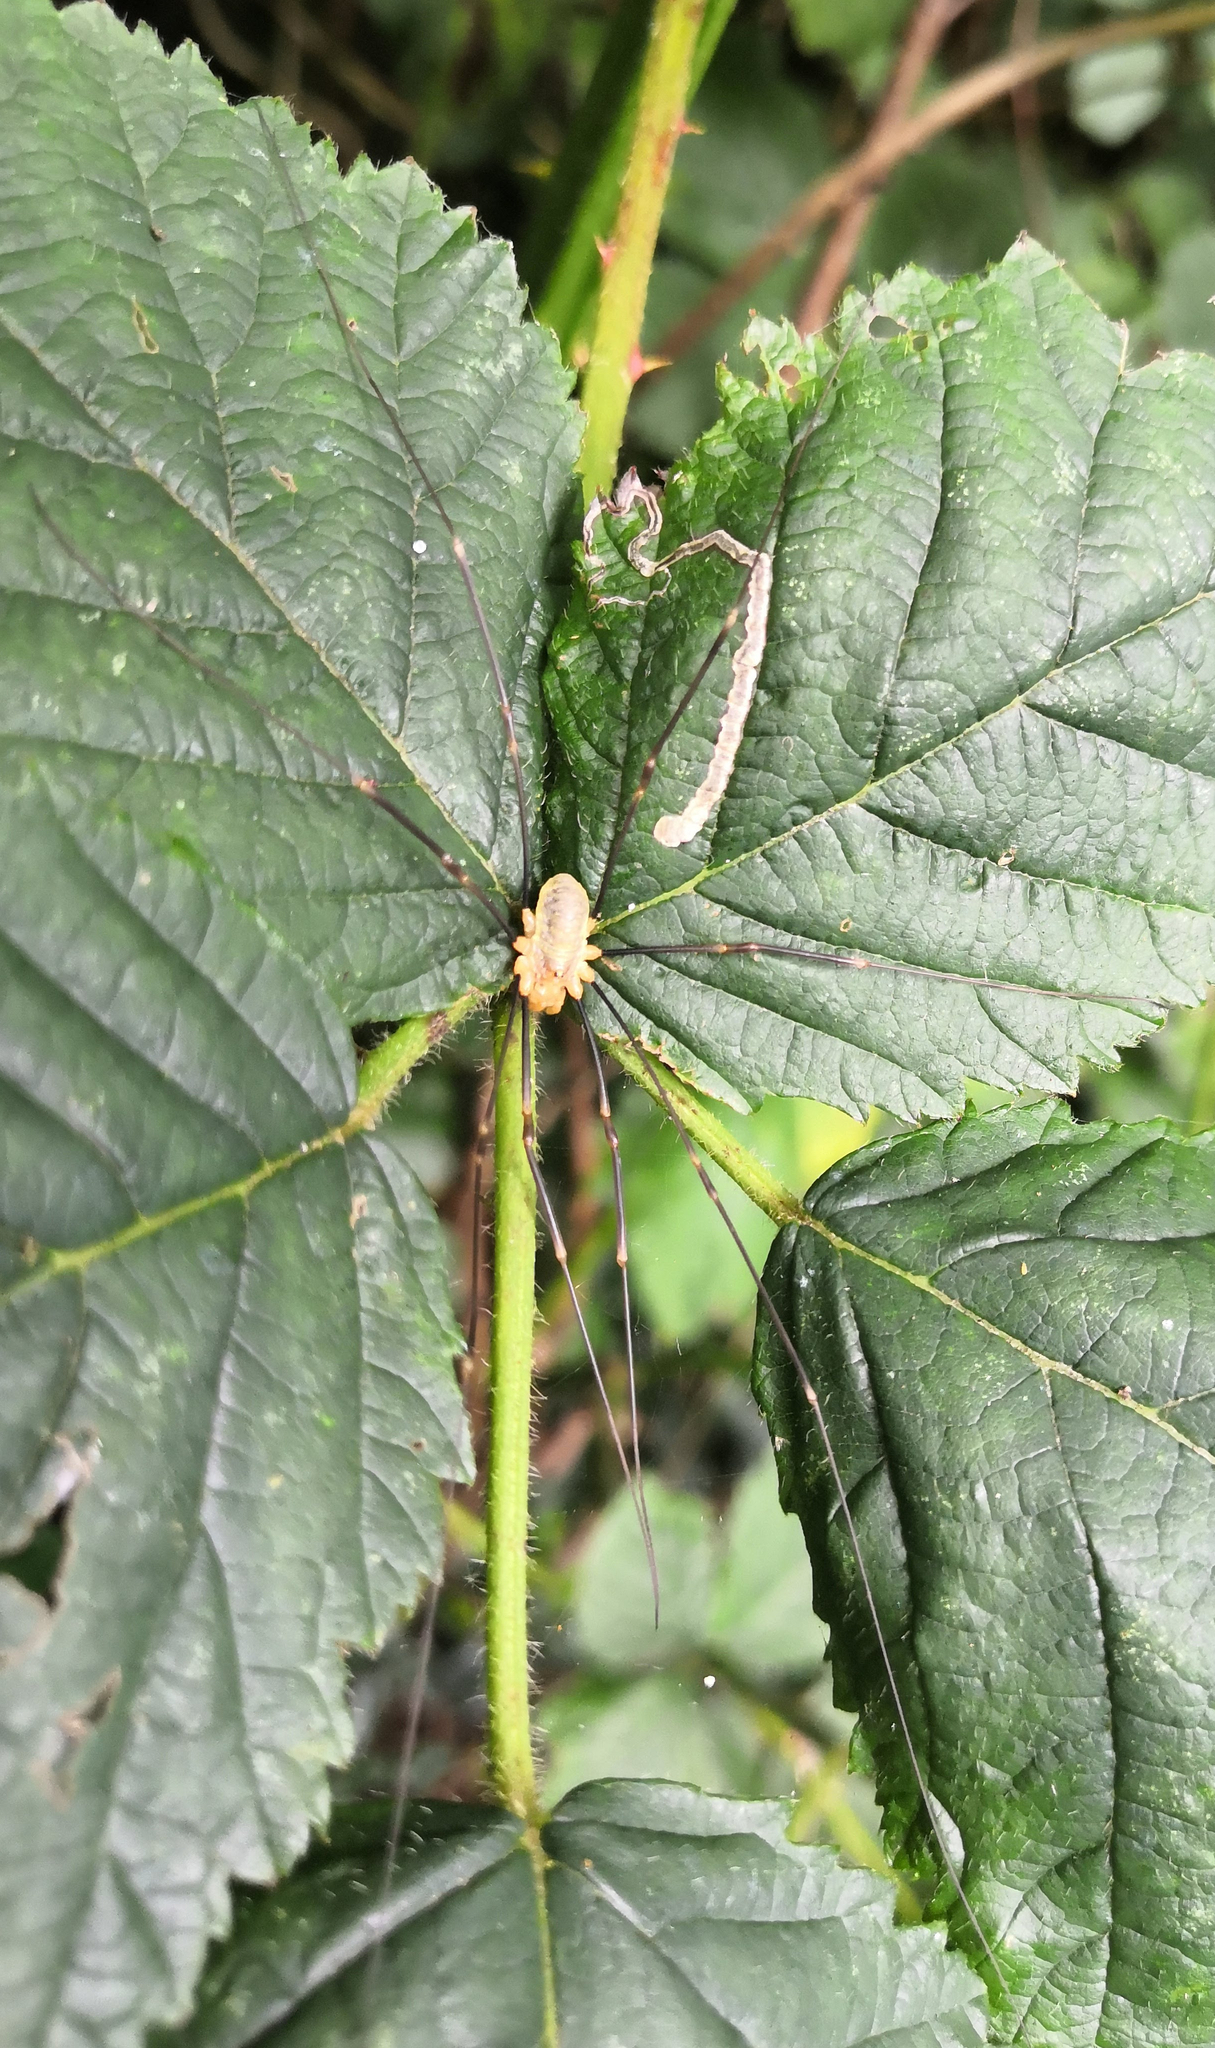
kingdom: Animalia
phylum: Arthropoda
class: Arachnida
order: Opiliones
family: Phalangiidae
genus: Opilio
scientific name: Opilio canestrinii
